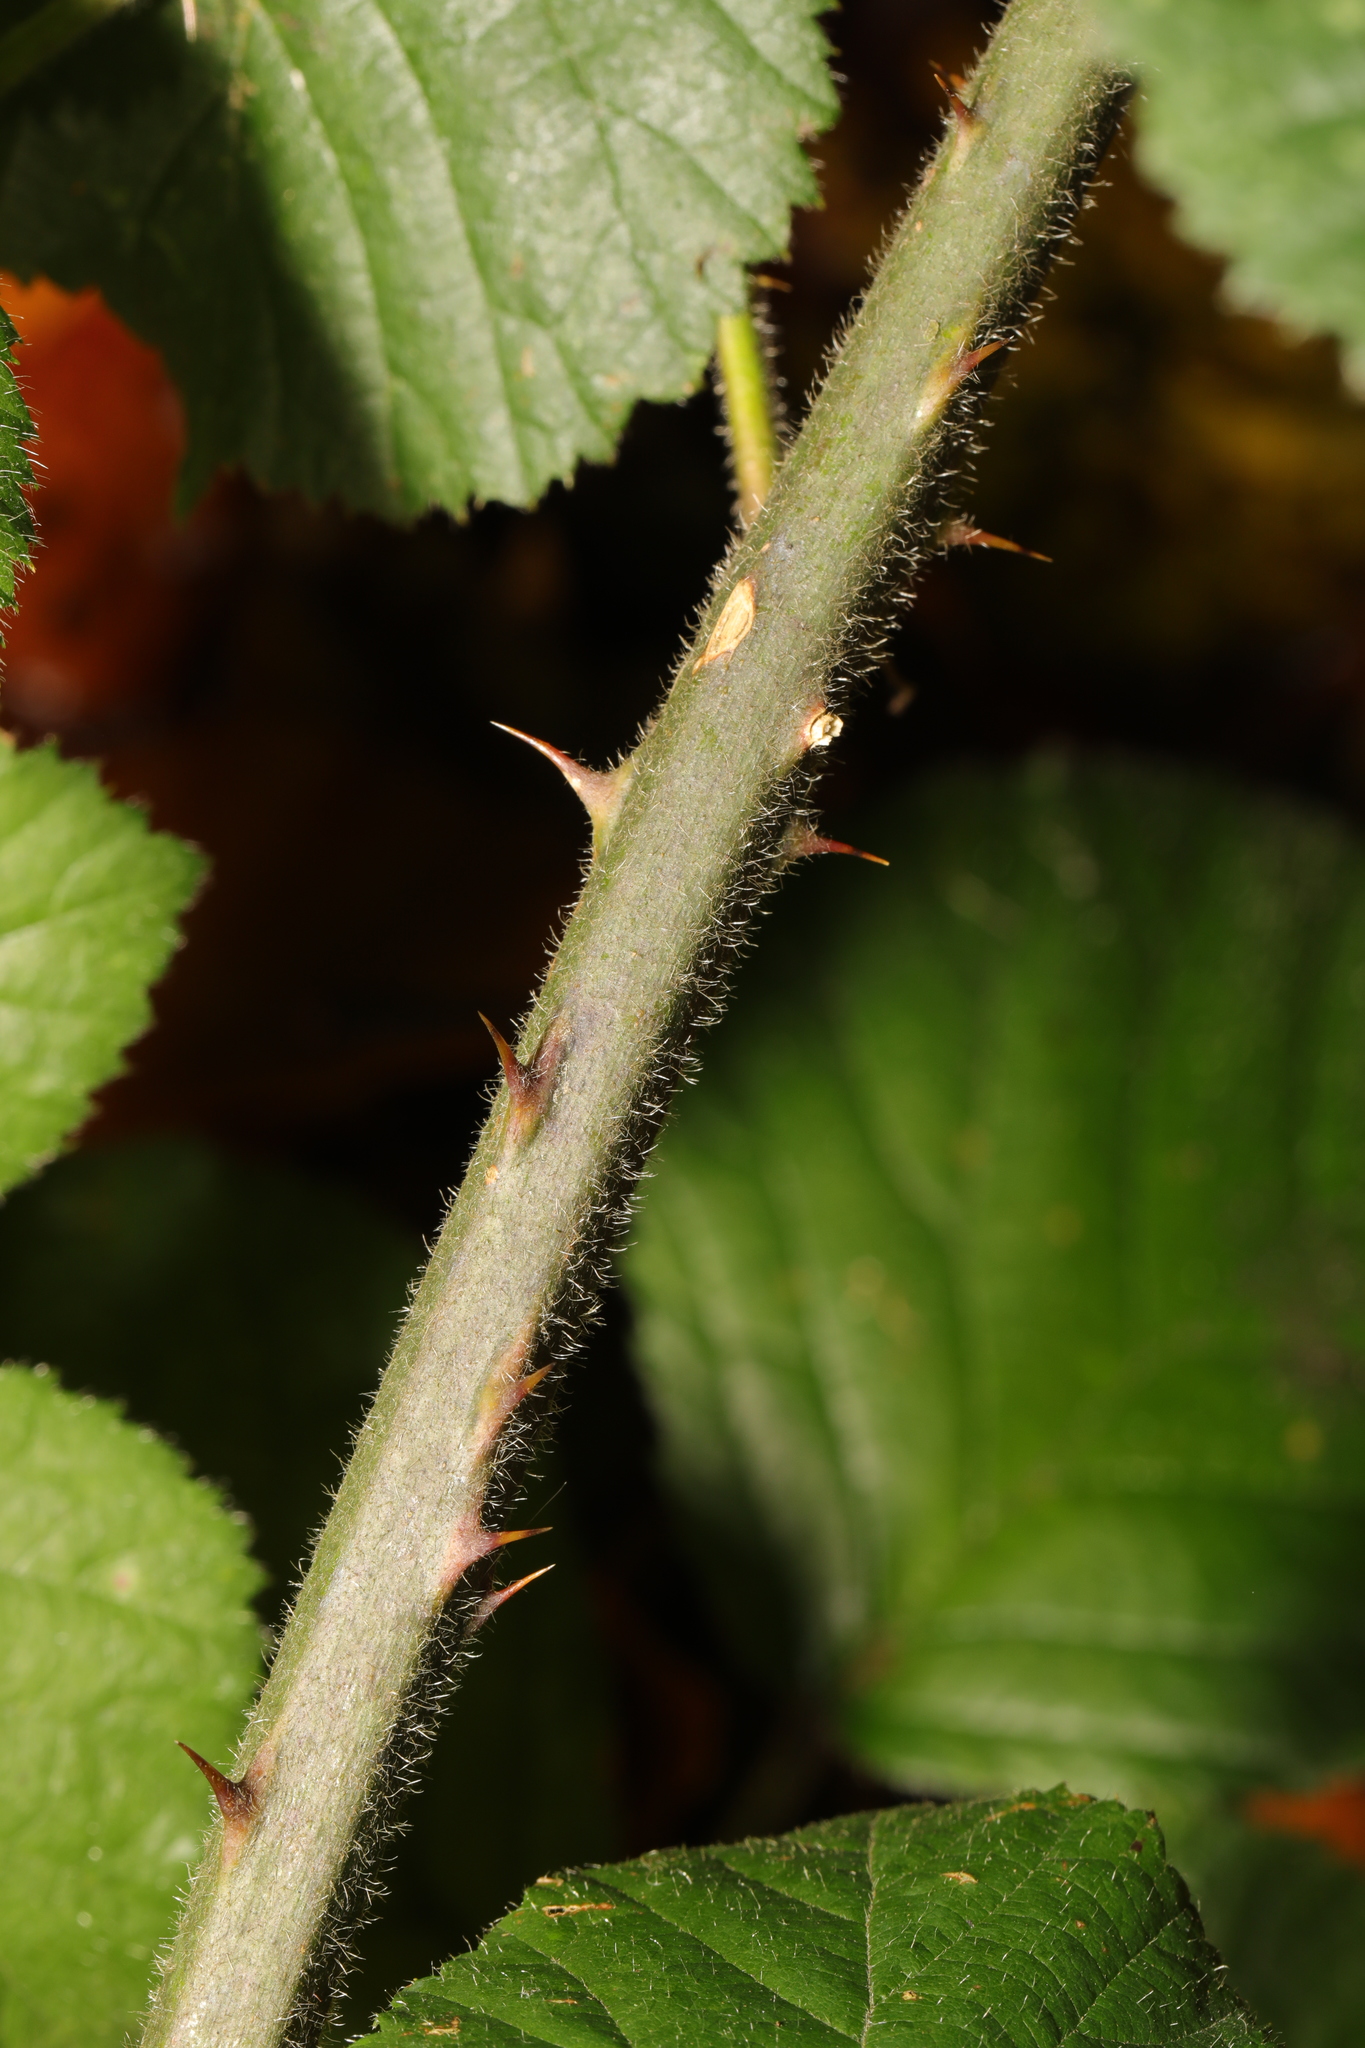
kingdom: Plantae
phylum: Tracheophyta
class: Magnoliopsida
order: Rosales
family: Rosaceae
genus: Rubus
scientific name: Rubus vestitus
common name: European blackberry
